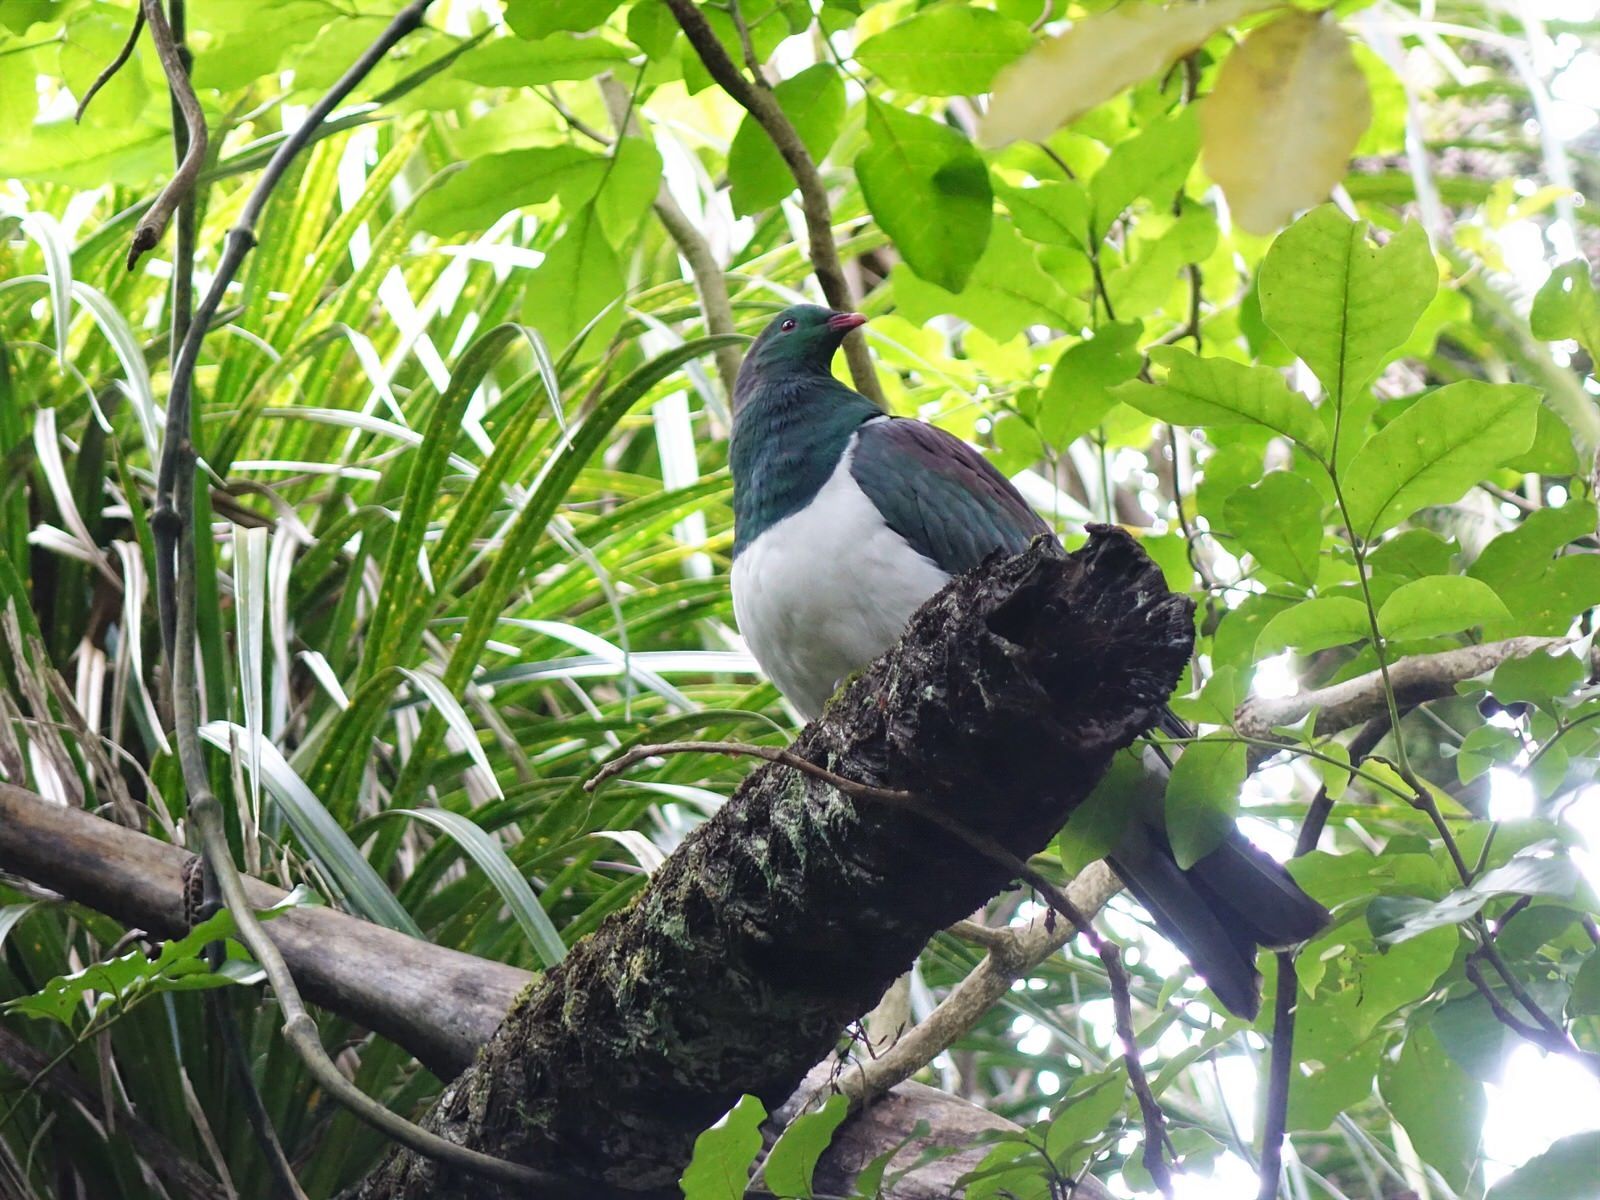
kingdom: Animalia
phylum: Chordata
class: Aves
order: Columbiformes
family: Columbidae
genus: Hemiphaga
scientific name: Hemiphaga novaeseelandiae
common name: New zealand pigeon
